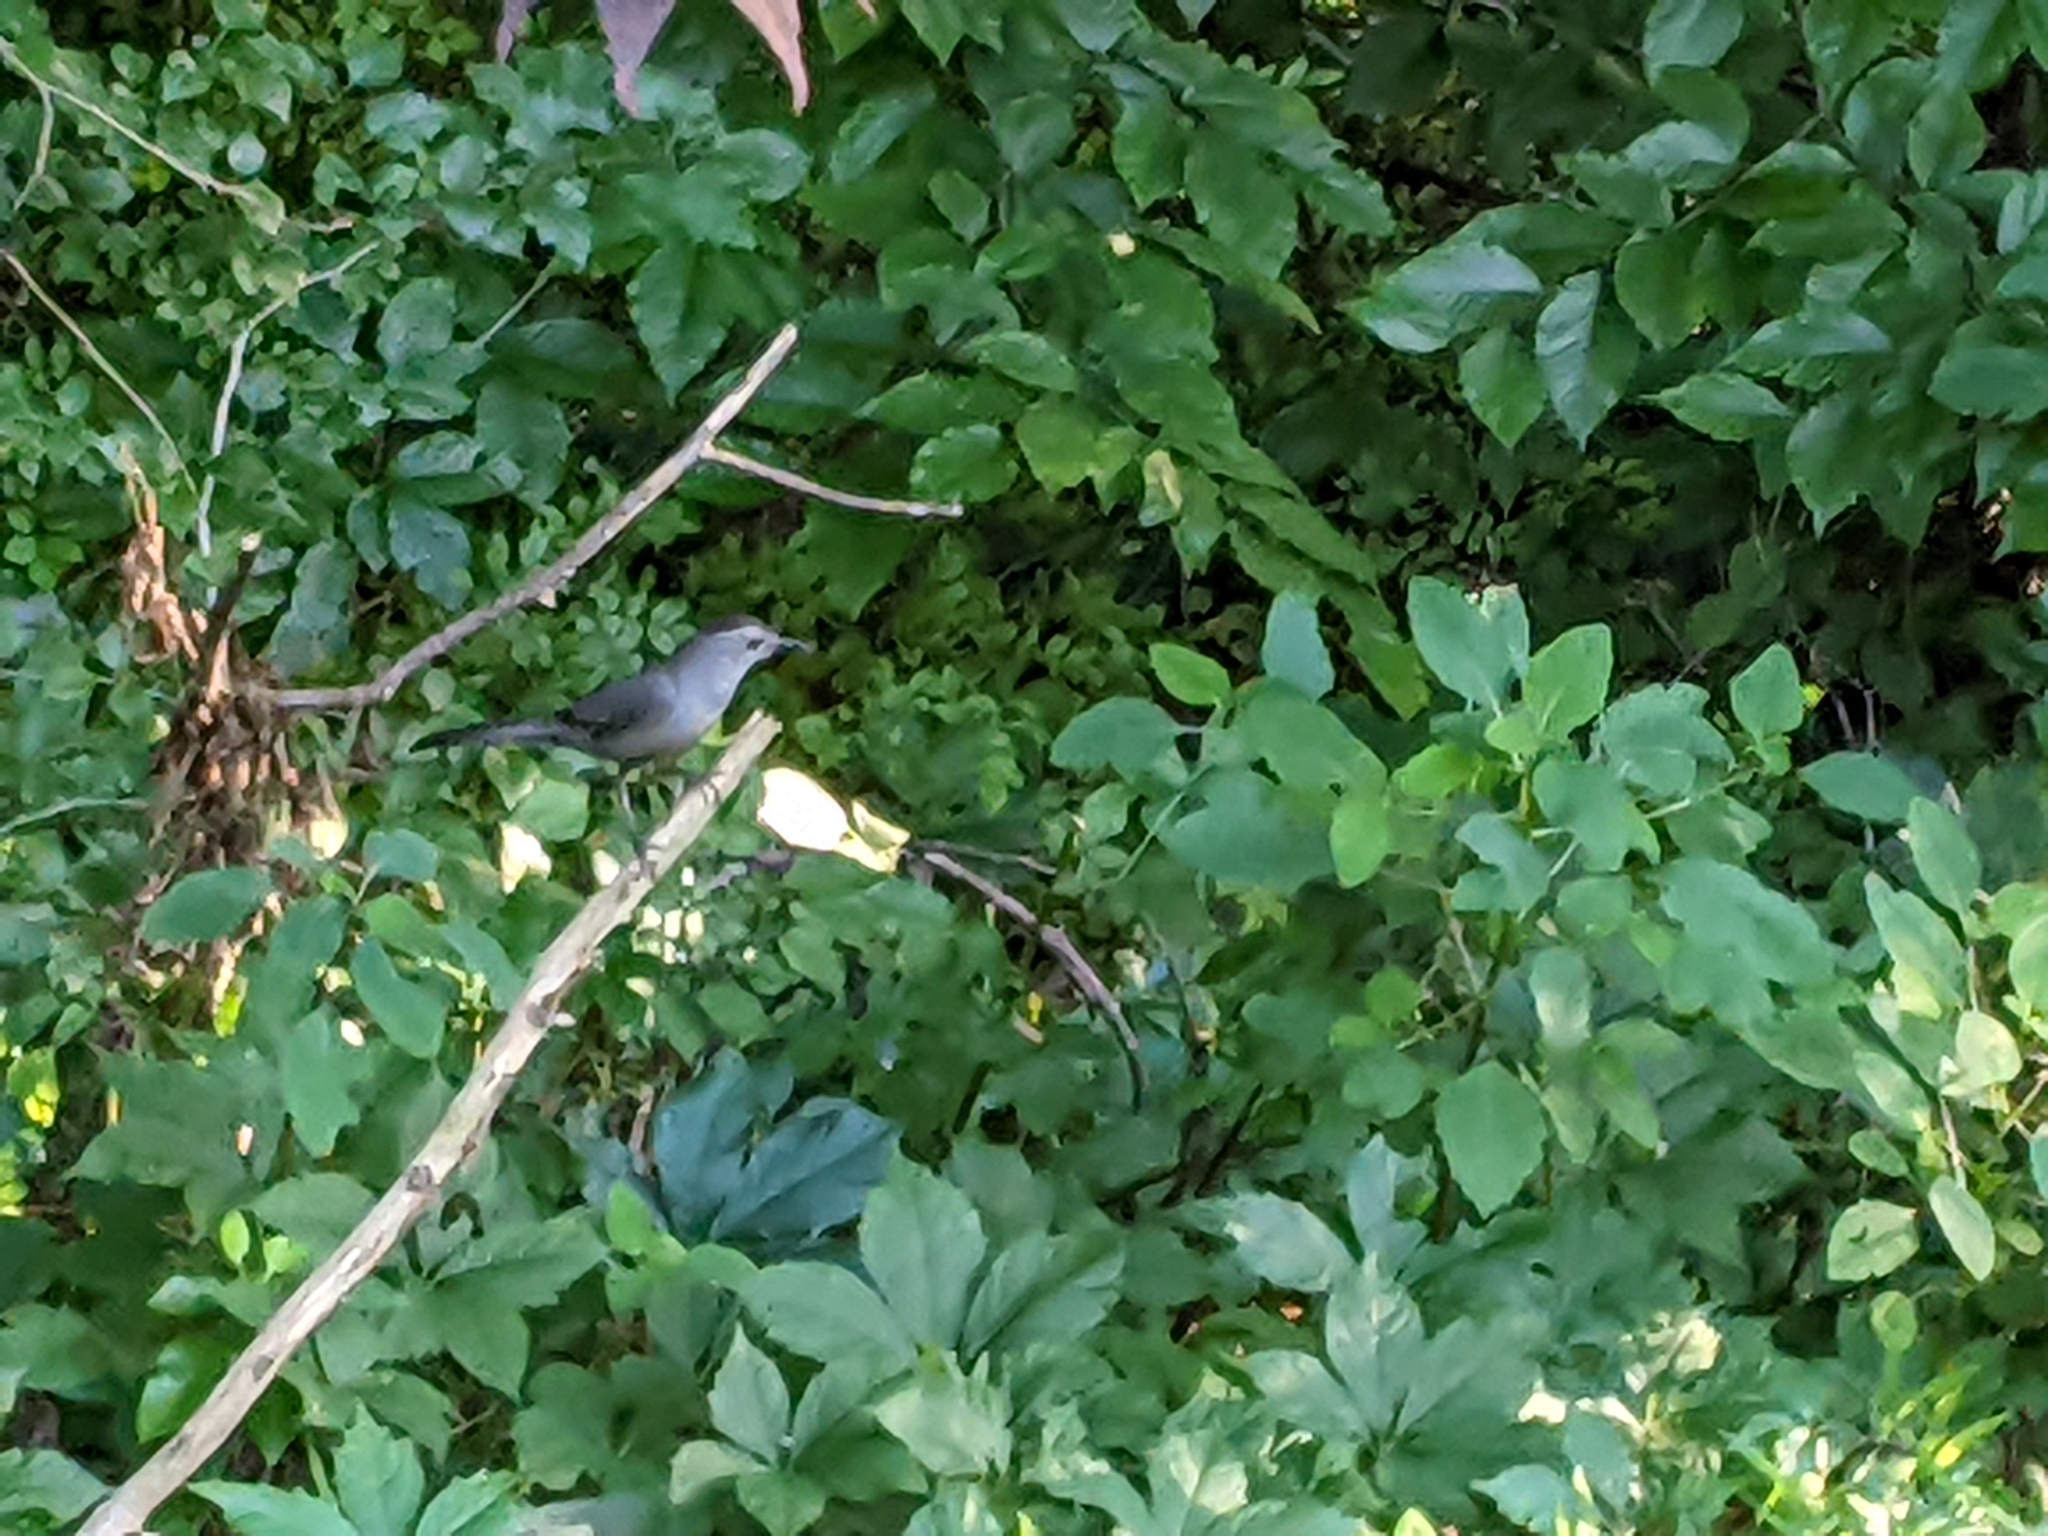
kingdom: Animalia
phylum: Chordata
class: Aves
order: Passeriformes
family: Mimidae
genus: Dumetella
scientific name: Dumetella carolinensis
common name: Gray catbird
